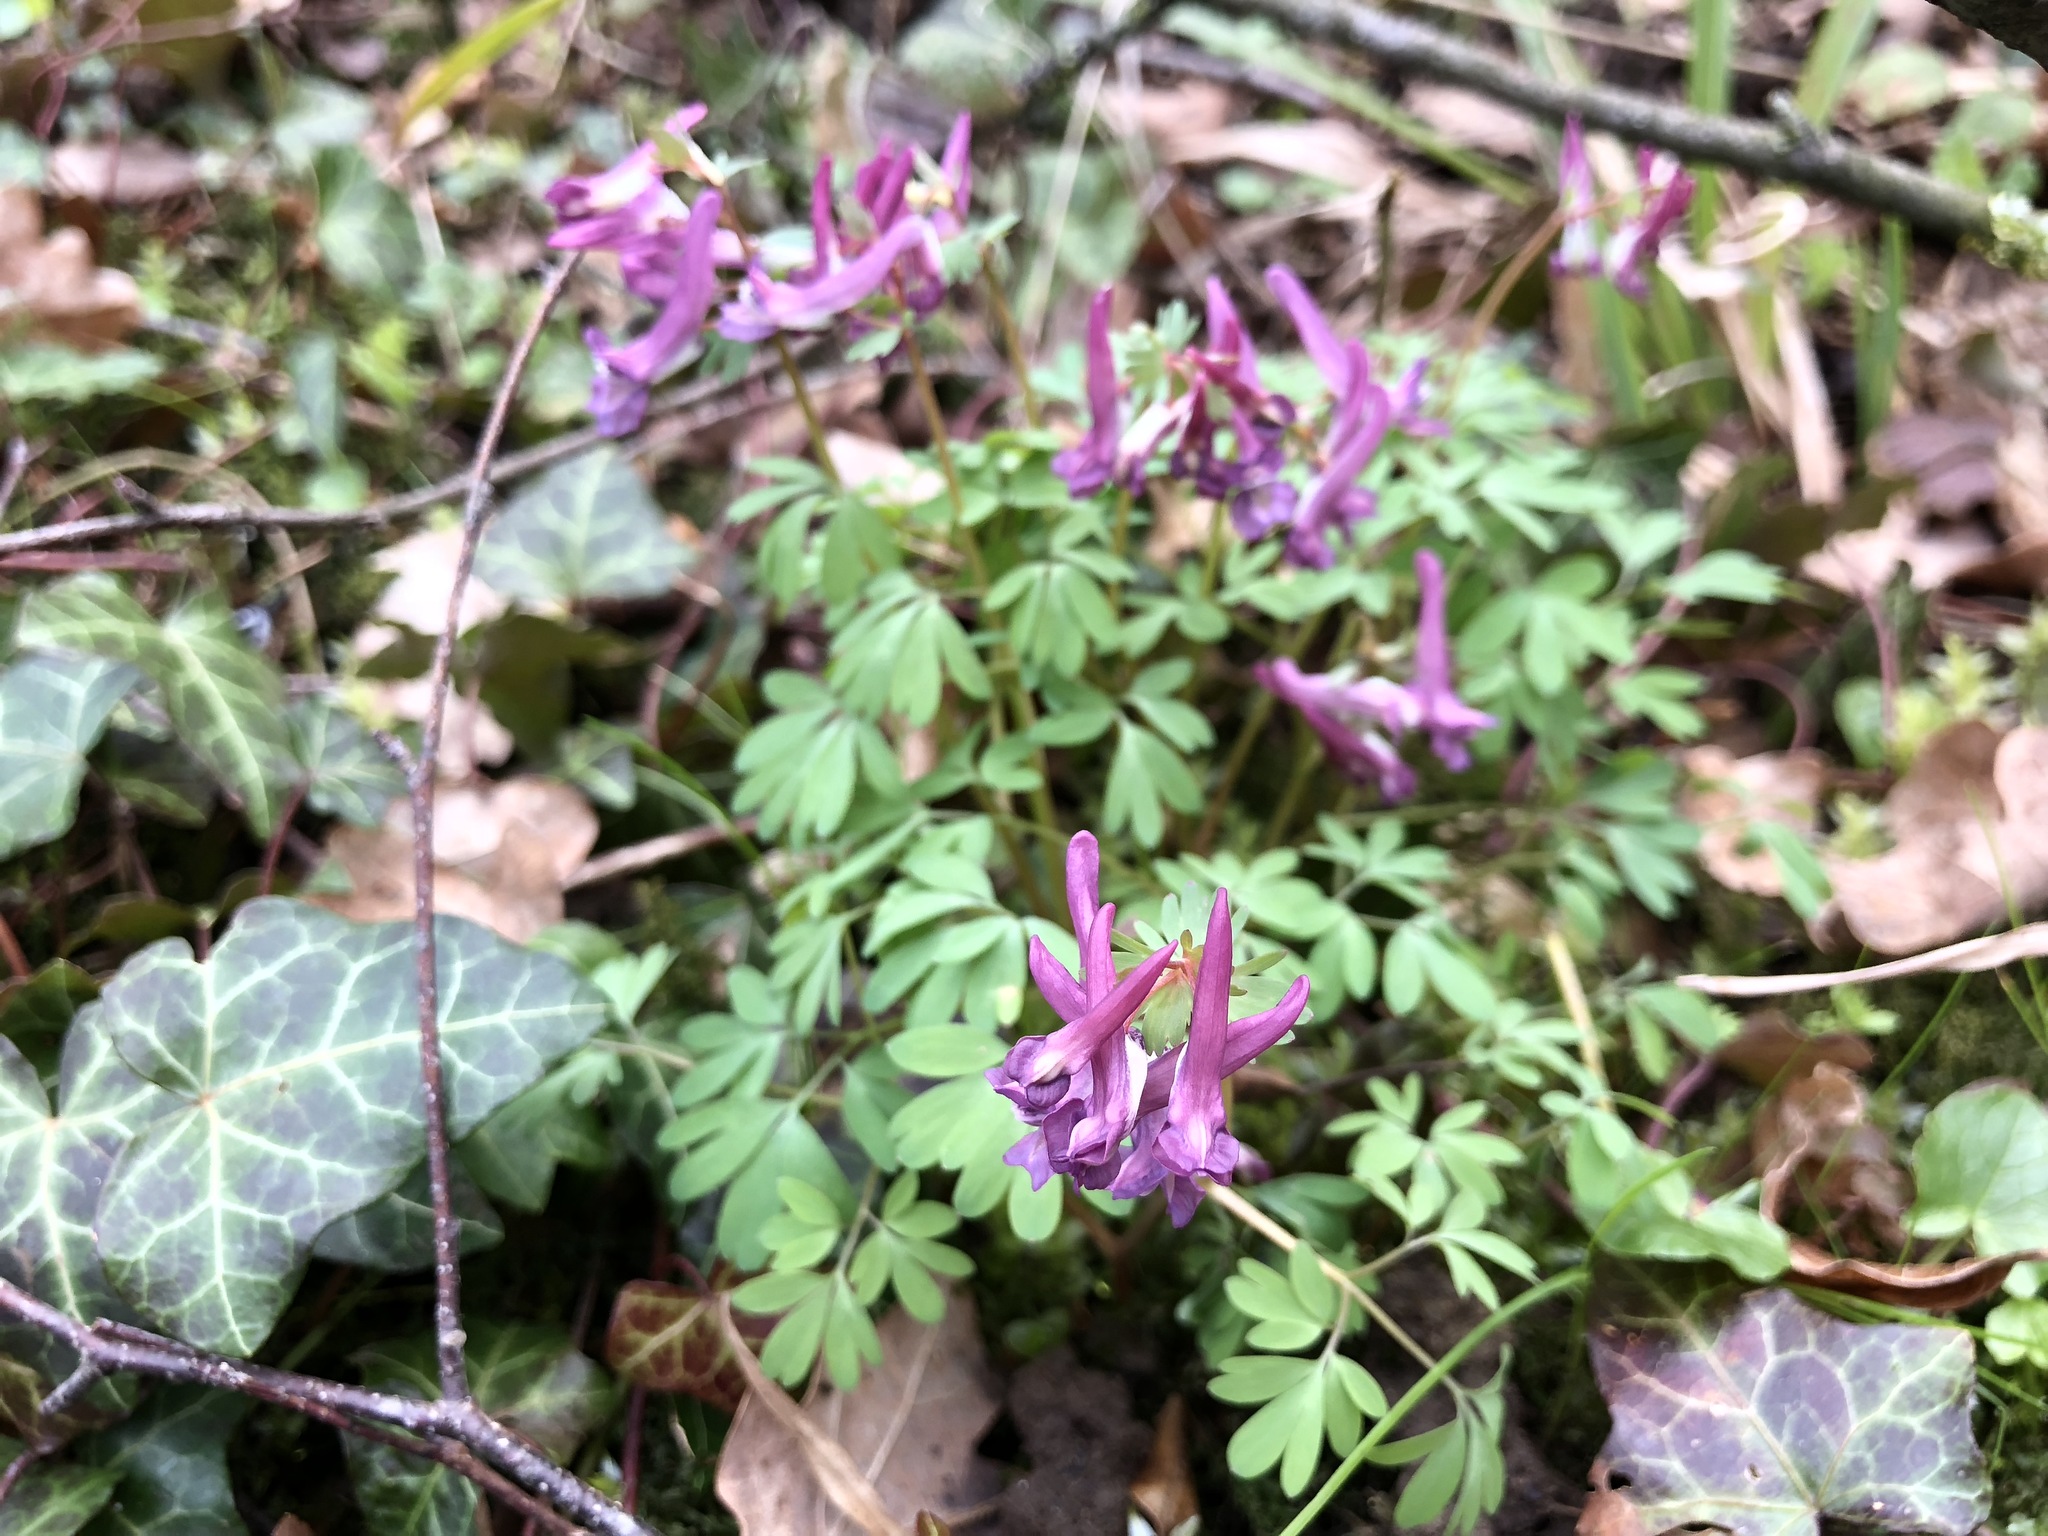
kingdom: Plantae
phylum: Tracheophyta
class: Magnoliopsida
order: Ranunculales
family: Papaveraceae
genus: Corydalis
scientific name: Corydalis solida
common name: Bird-in-a-bush
